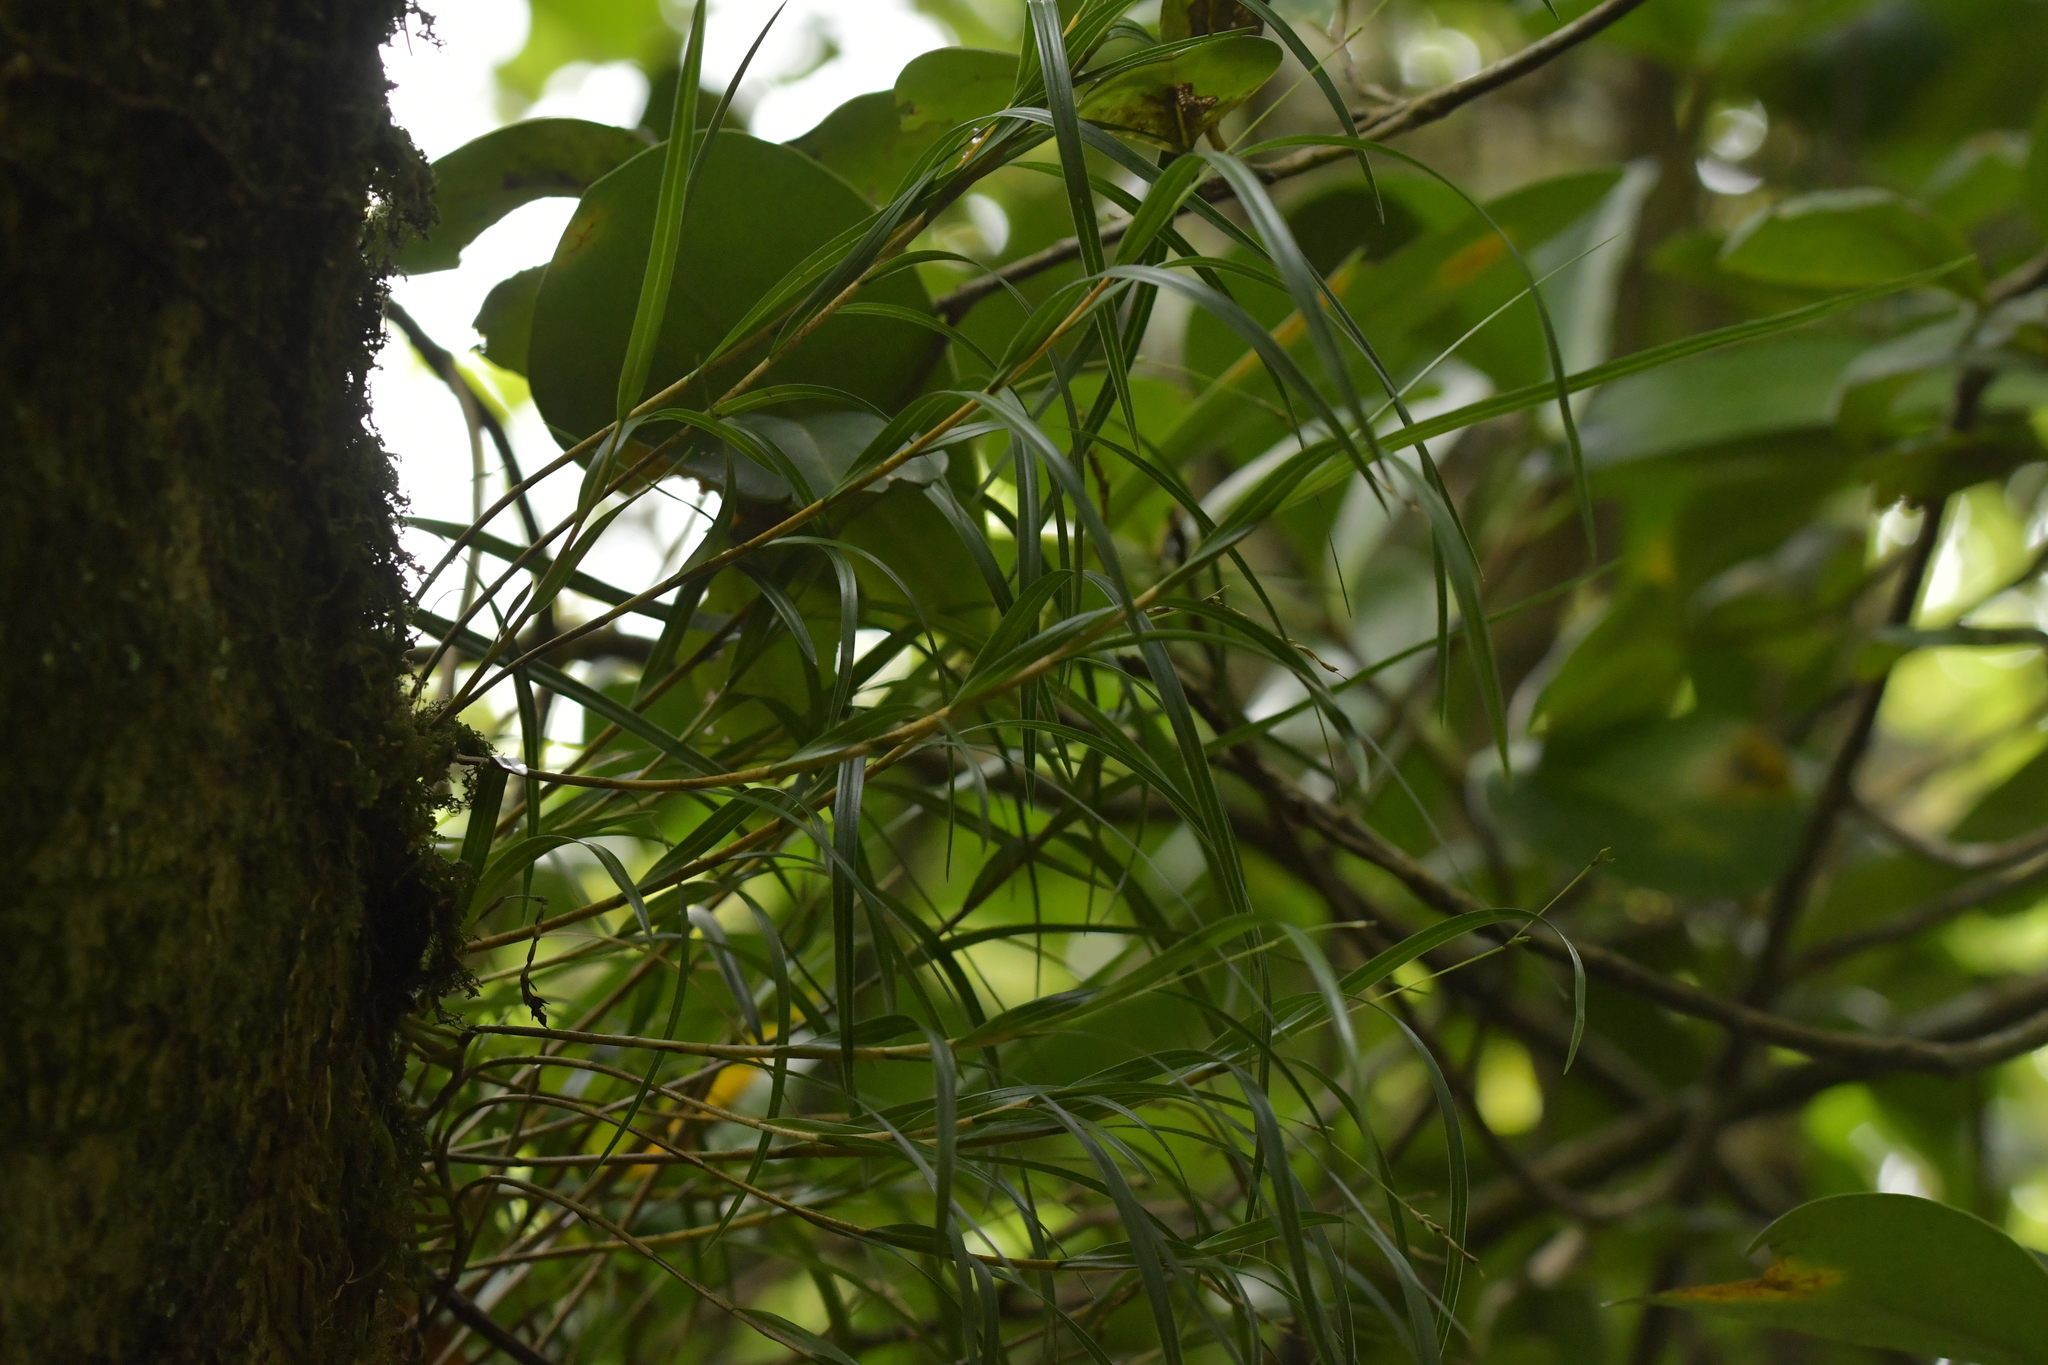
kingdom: Plantae
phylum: Tracheophyta
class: Liliopsida
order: Asparagales
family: Orchidaceae
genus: Earina
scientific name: Earina mucronata
